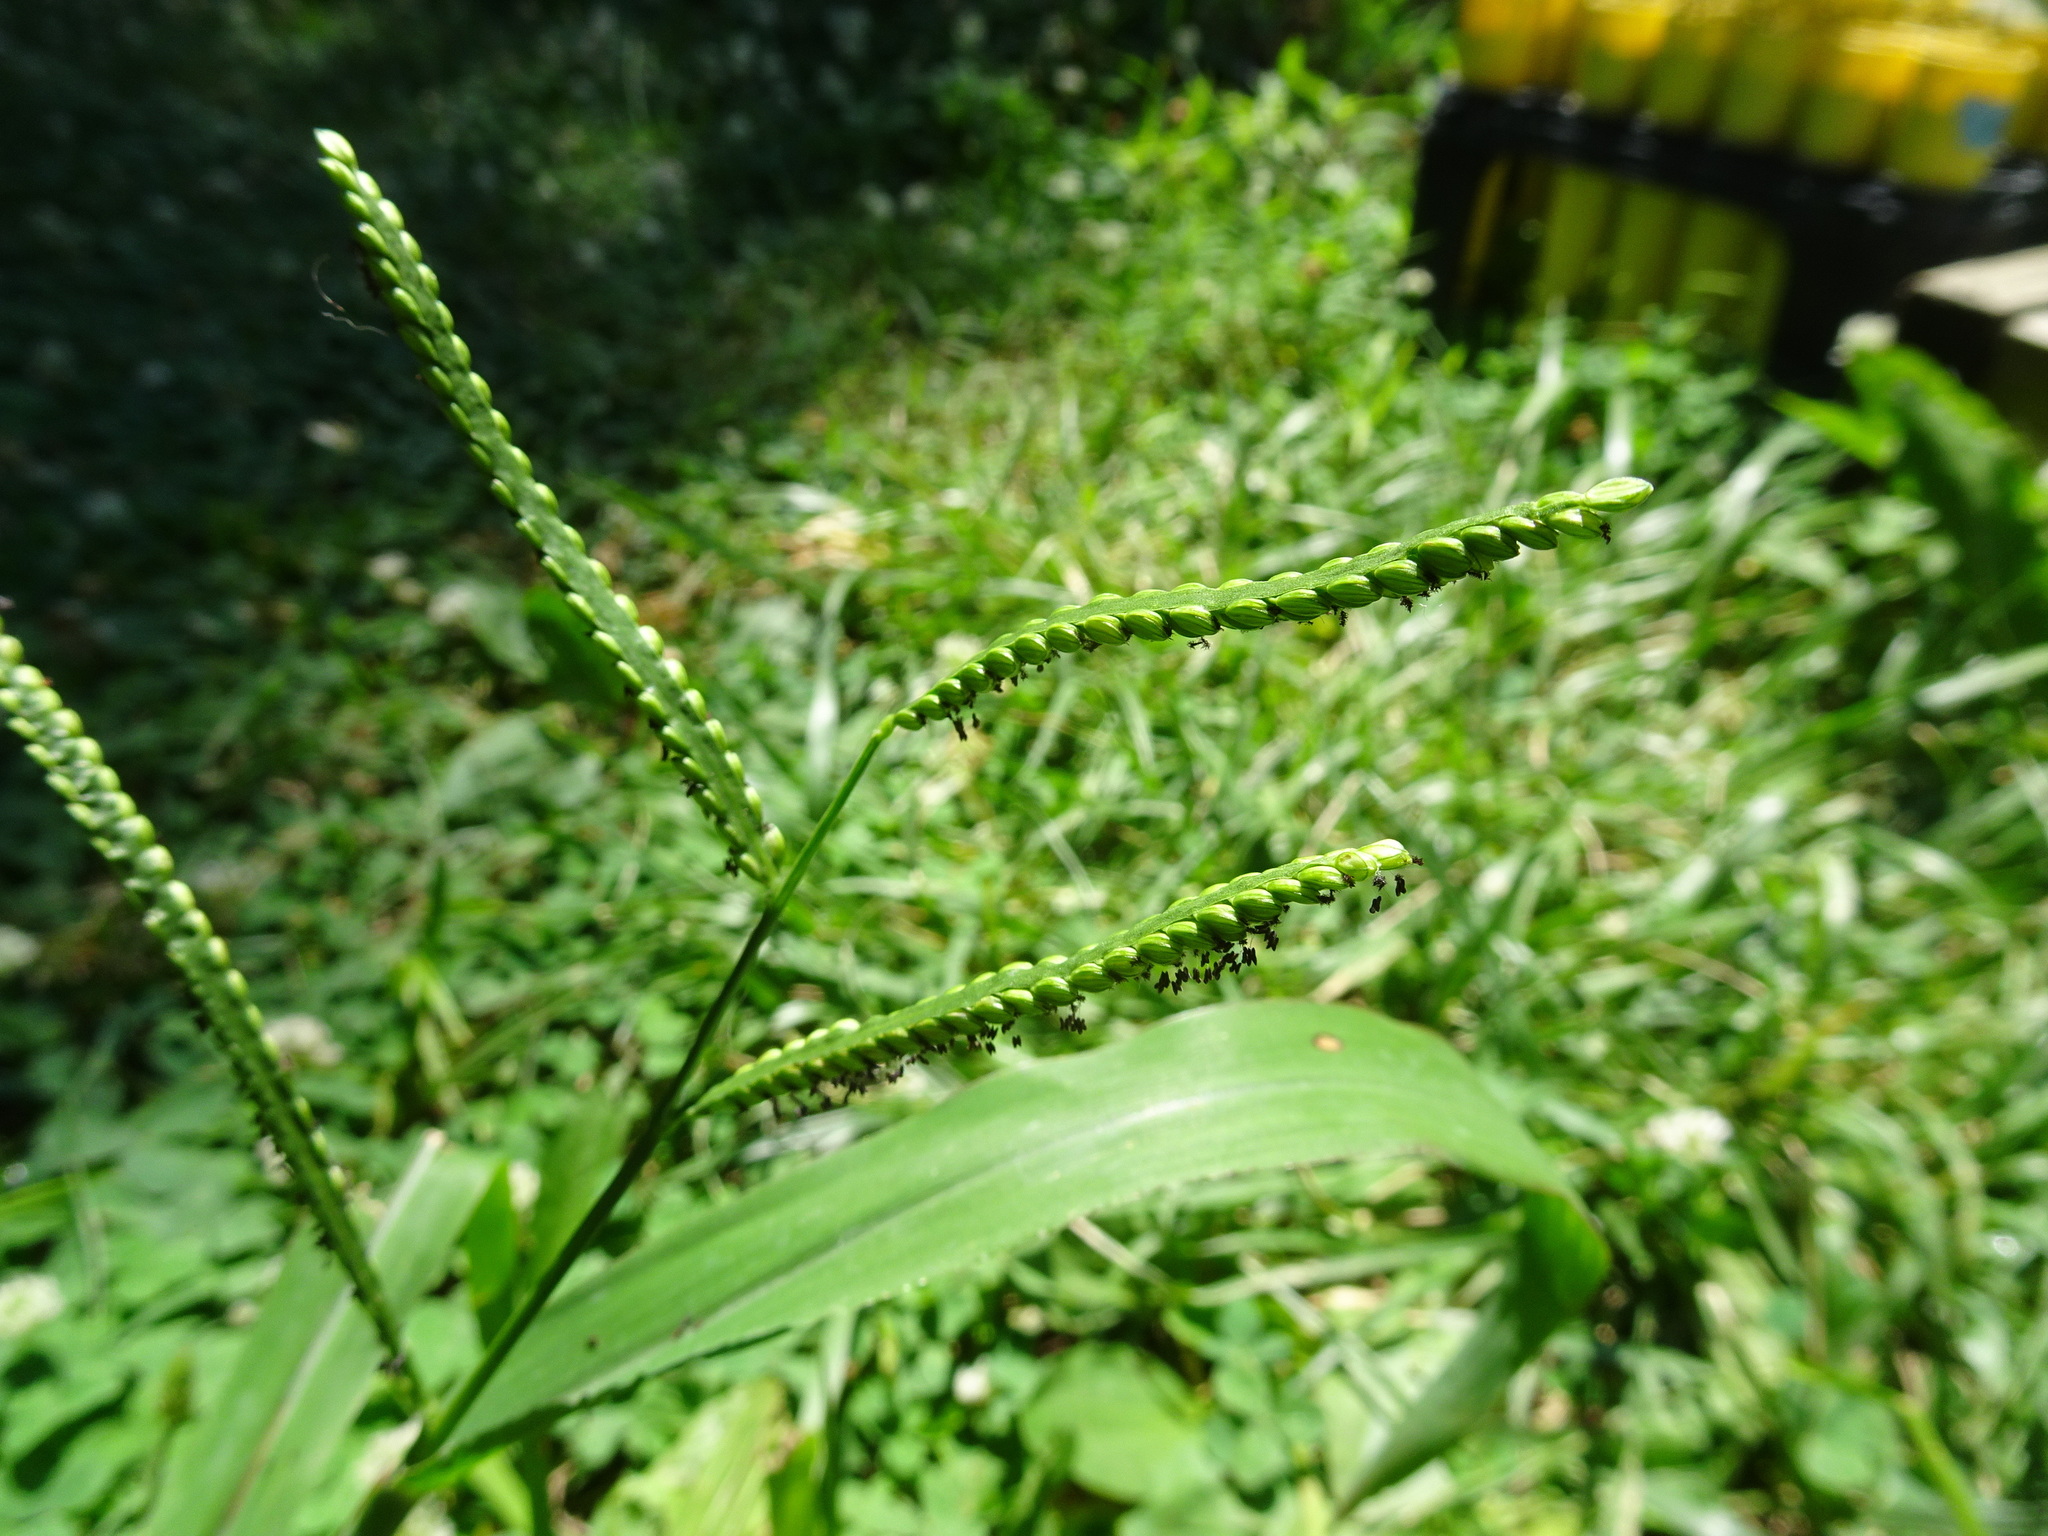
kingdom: Plantae
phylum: Tracheophyta
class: Liliopsida
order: Poales
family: Poaceae
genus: Paspalum
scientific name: Paspalum pubiflorum
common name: Hairy-seed paspalum
